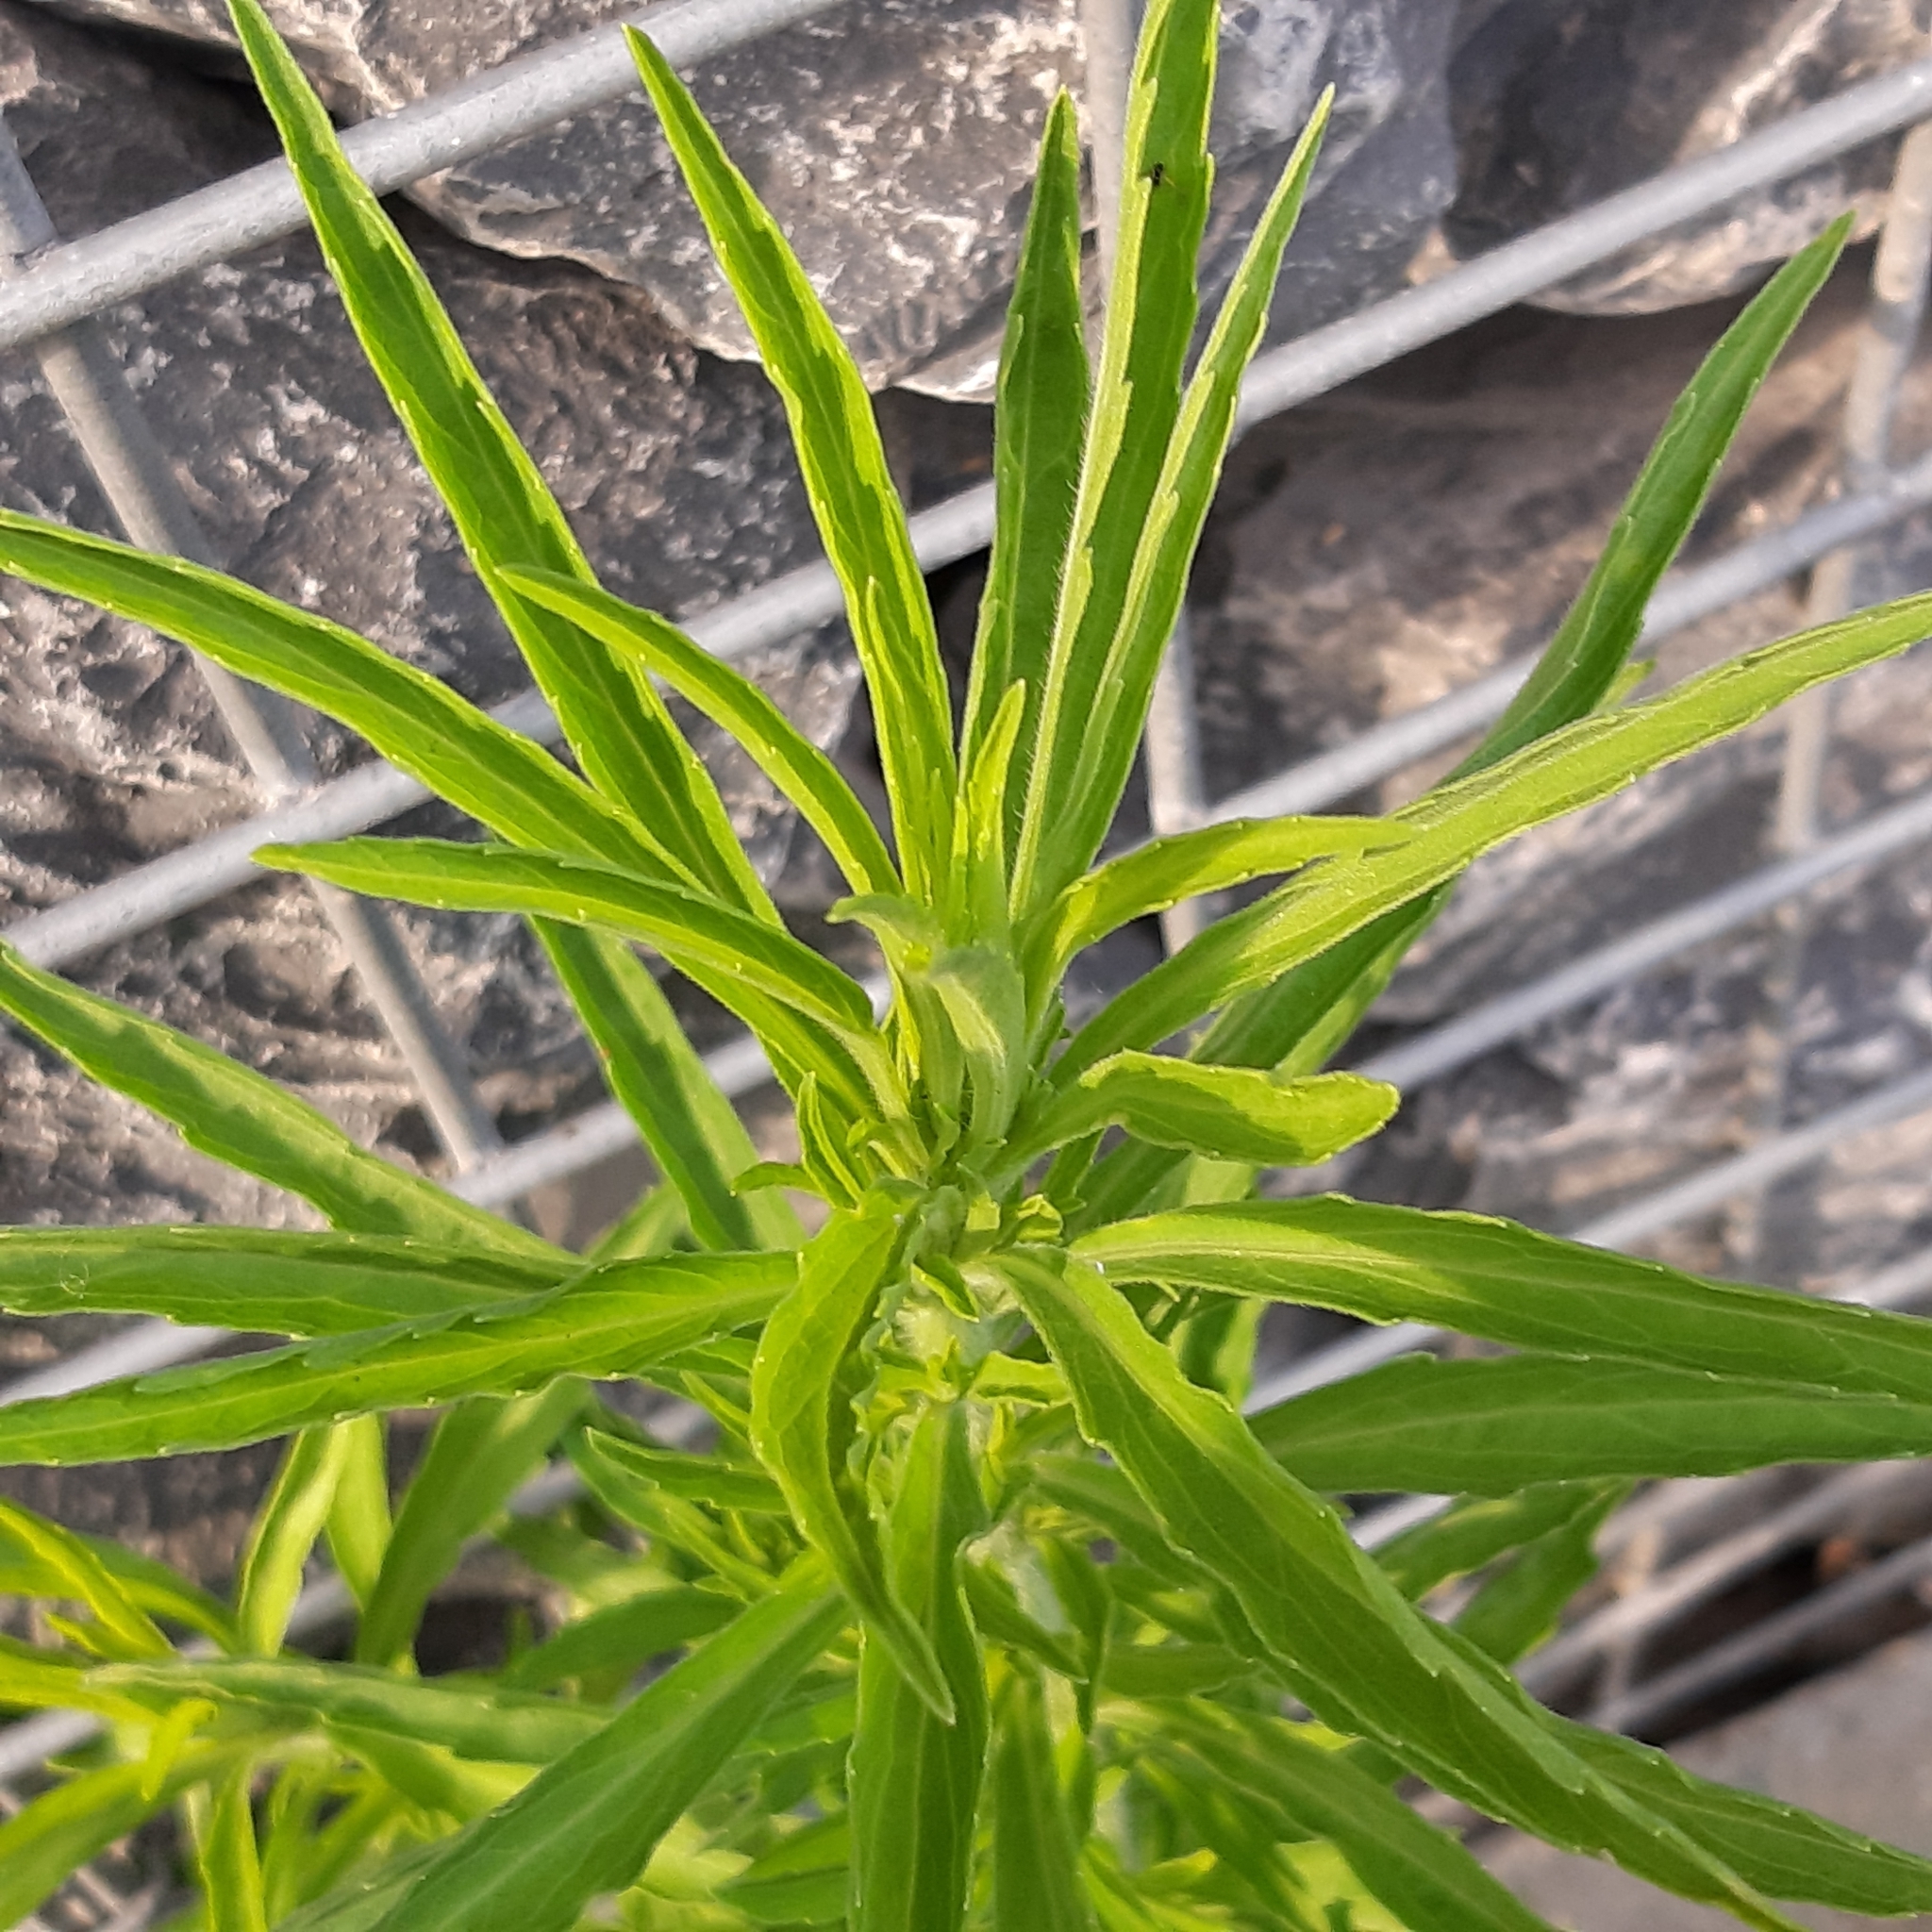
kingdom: Plantae
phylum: Tracheophyta
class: Magnoliopsida
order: Asterales
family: Asteraceae
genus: Erigeron
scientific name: Erigeron sumatrensis
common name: Daisy
